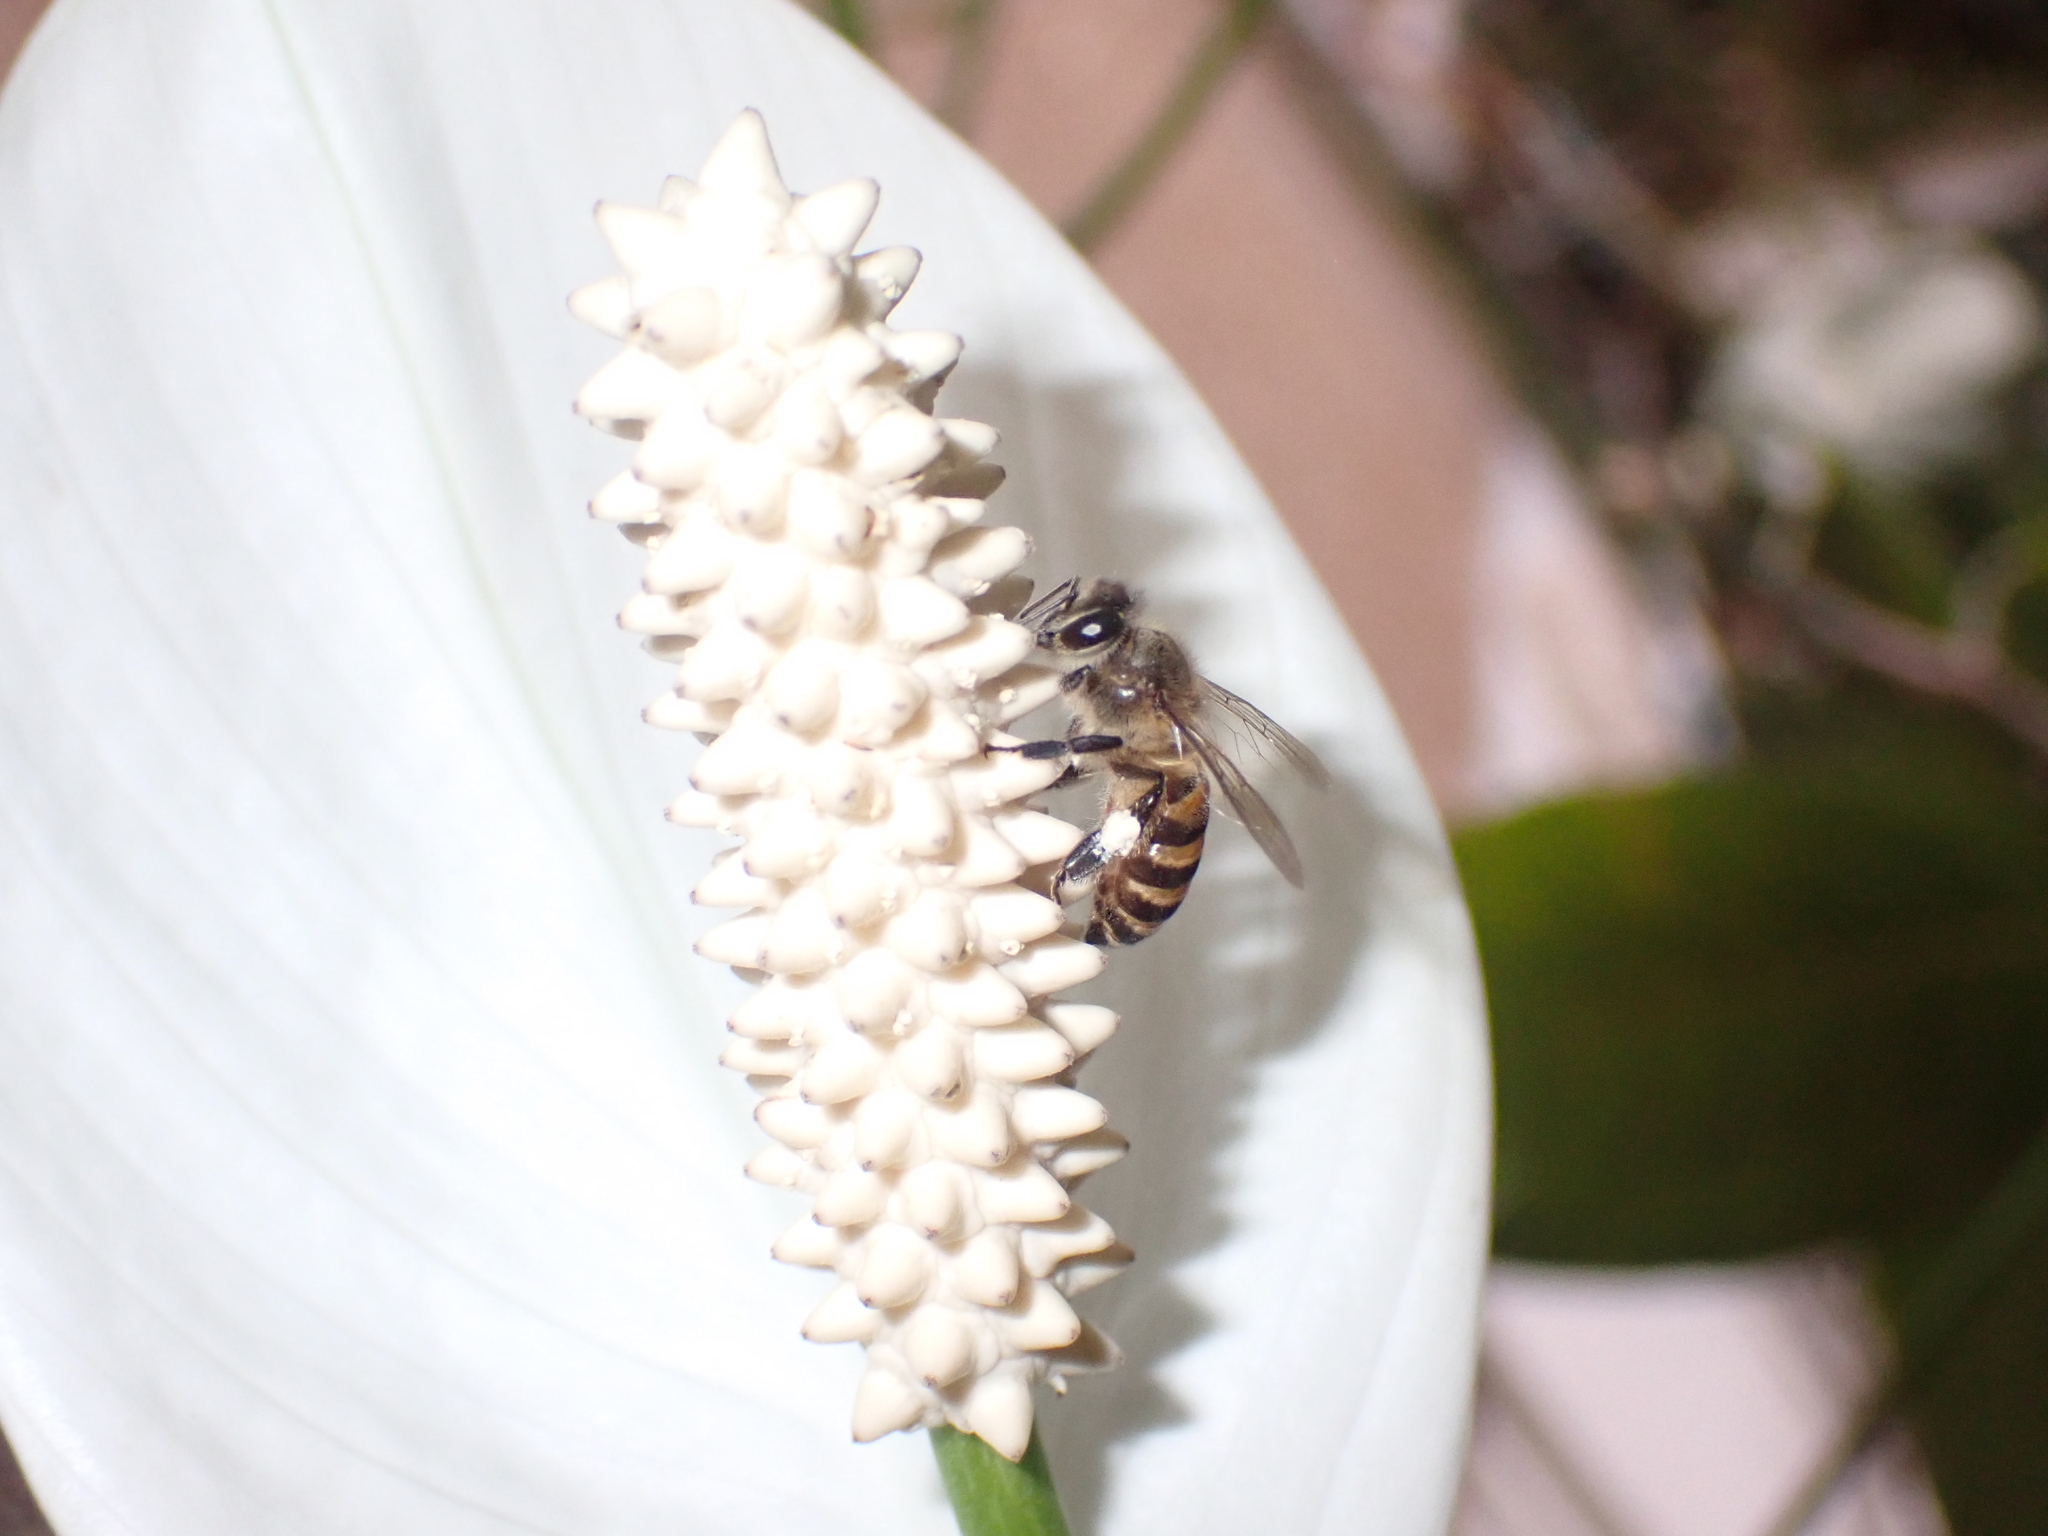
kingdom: Animalia
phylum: Arthropoda
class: Insecta
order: Hymenoptera
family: Apidae
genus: Apis
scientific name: Apis cerana
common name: Honey bee
